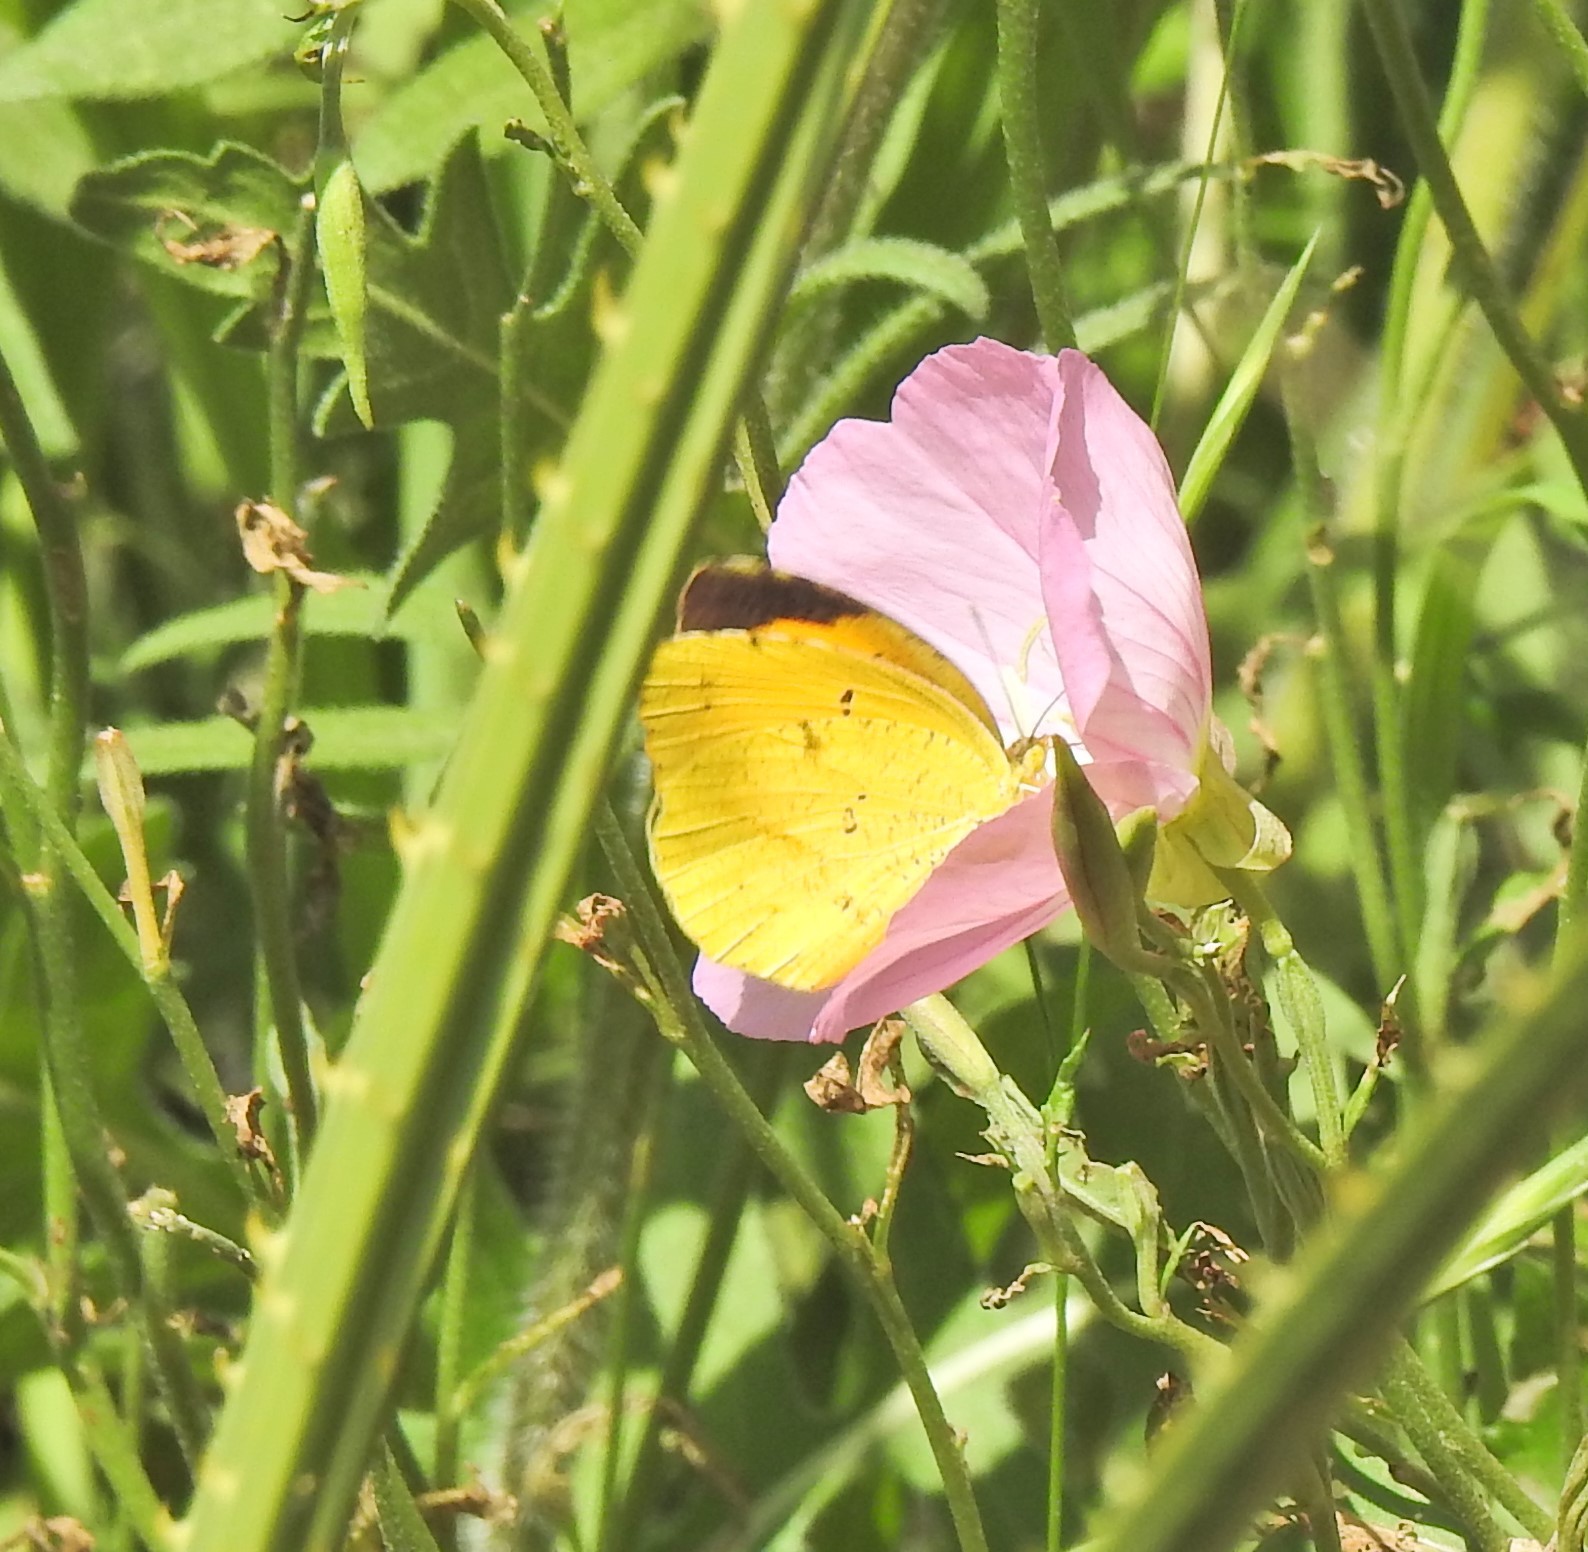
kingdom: Animalia
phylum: Arthropoda
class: Insecta
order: Lepidoptera
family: Pieridae
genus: Abaeis
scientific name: Abaeis nicippe
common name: Sleepy orange
